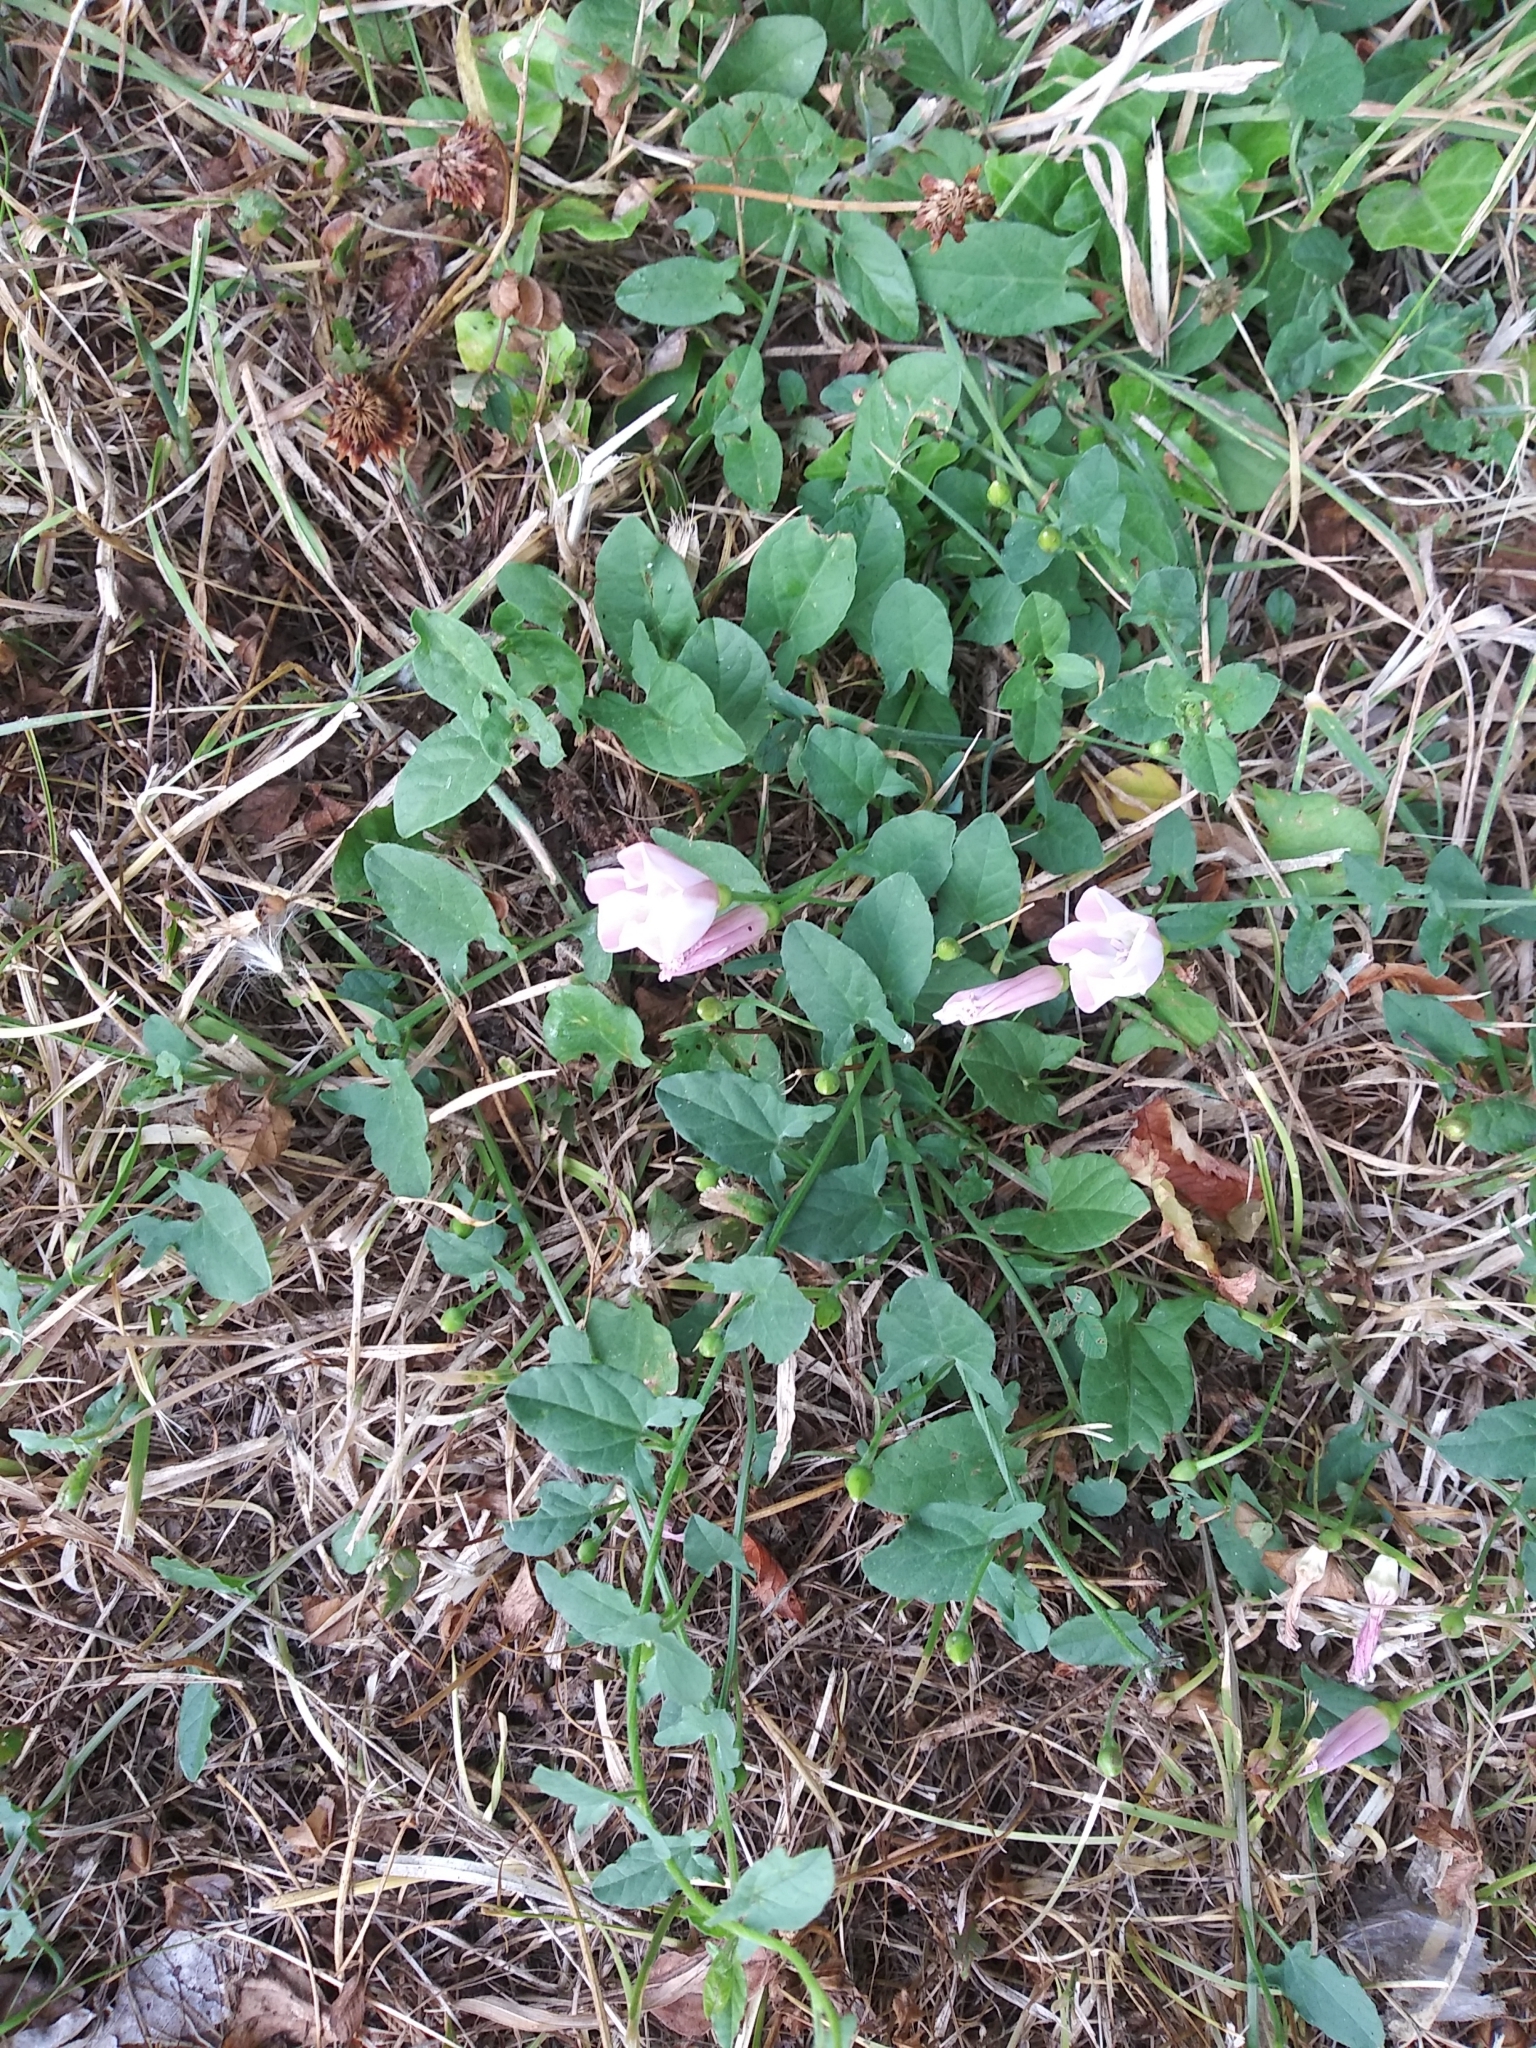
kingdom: Plantae
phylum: Tracheophyta
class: Magnoliopsida
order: Solanales
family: Convolvulaceae
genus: Convolvulus
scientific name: Convolvulus arvensis
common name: Field bindweed
